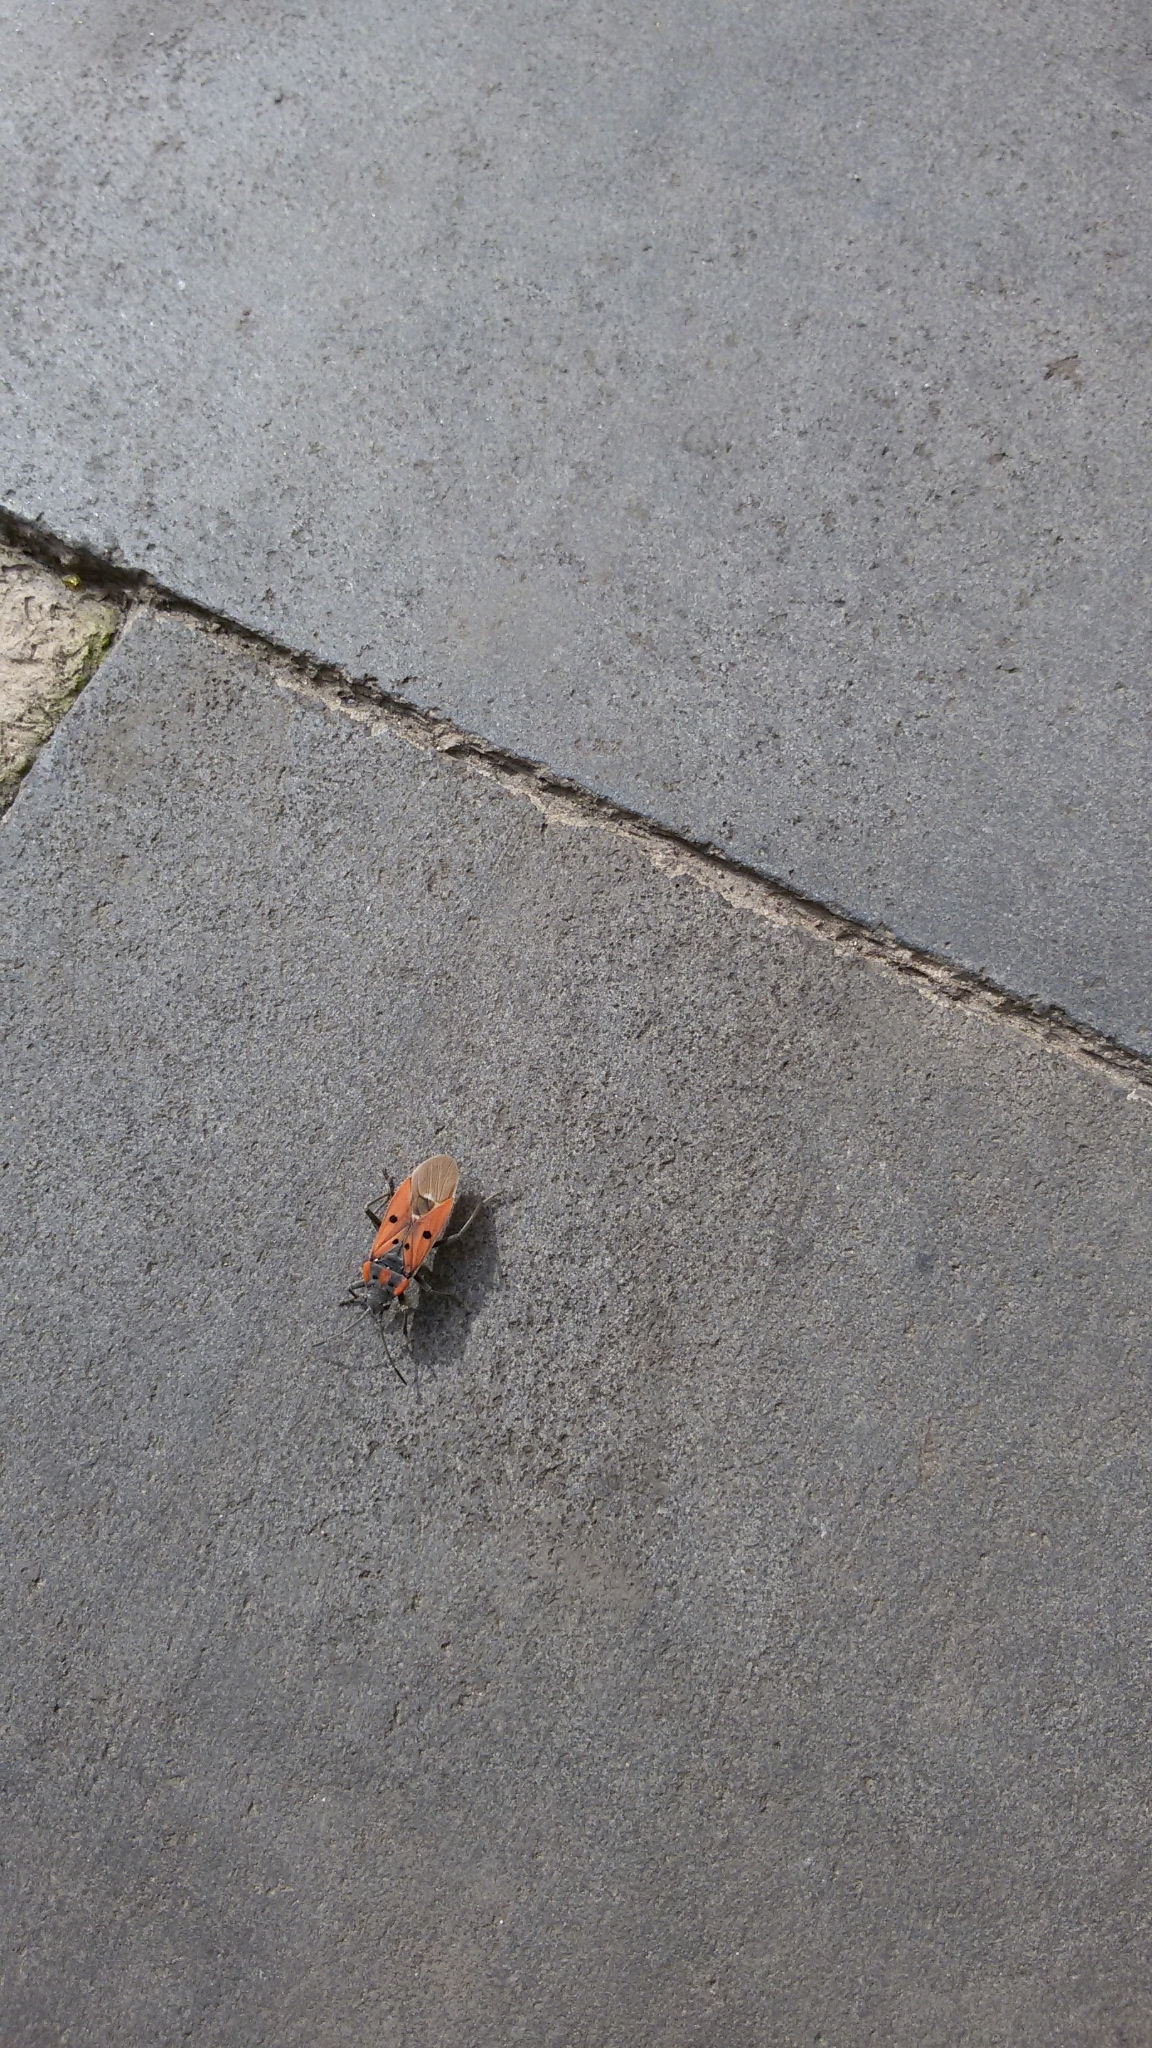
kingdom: Animalia
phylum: Arthropoda
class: Insecta
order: Hemiptera
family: Lygaeidae
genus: Lygaeus
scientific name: Lygaeus creticus
